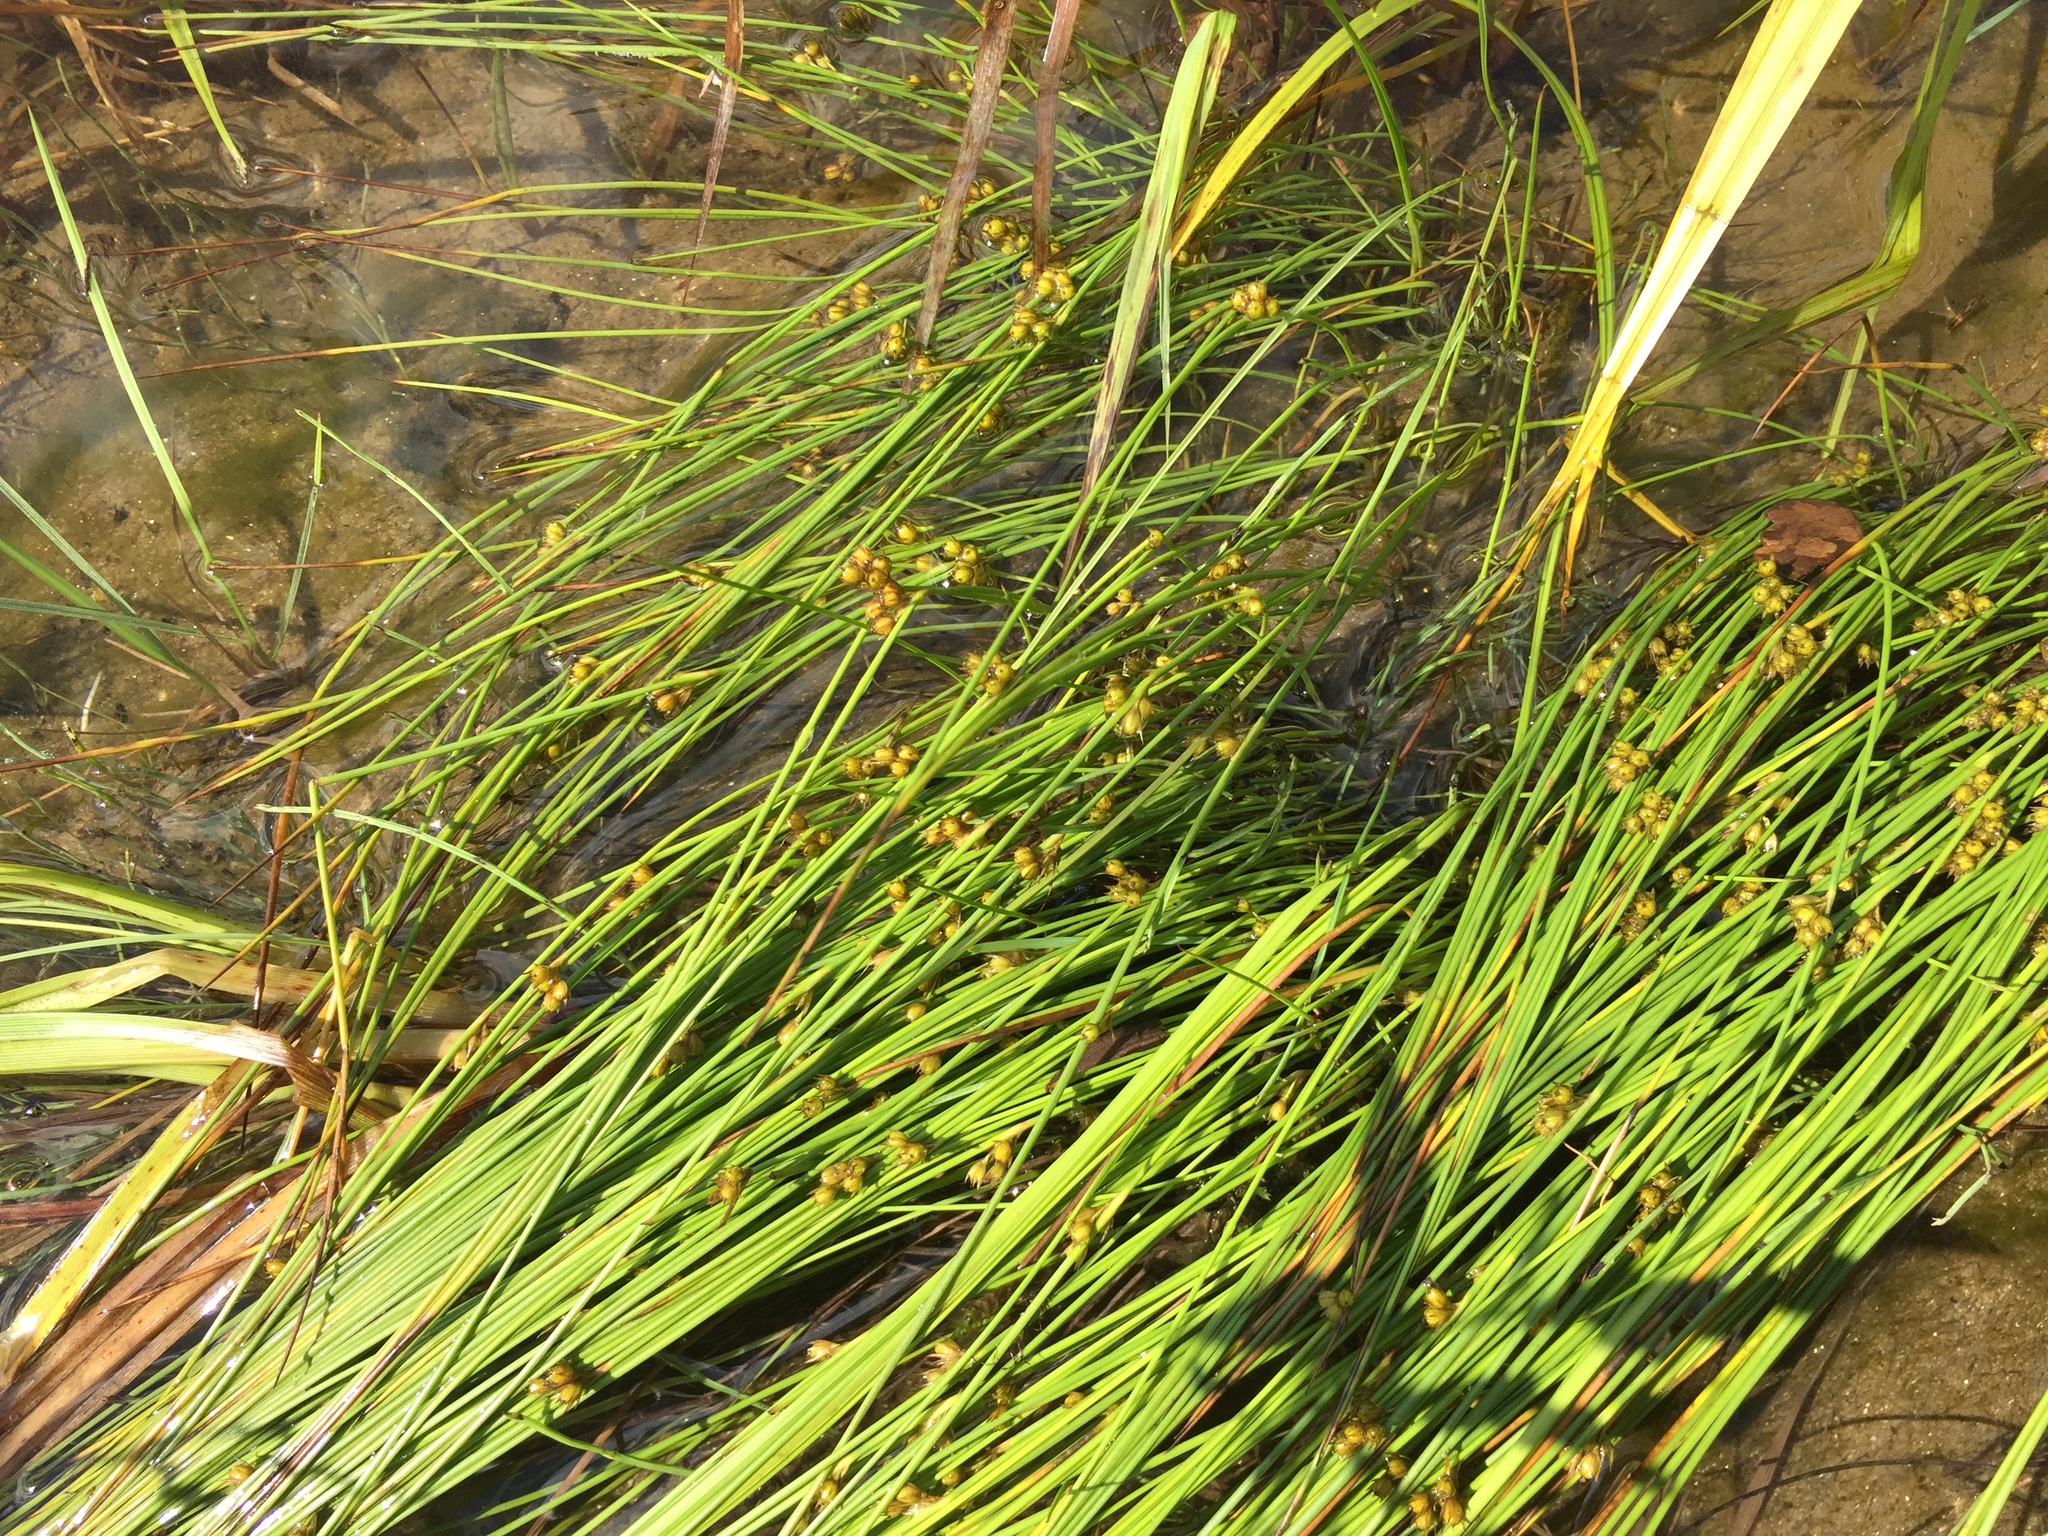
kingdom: Plantae
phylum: Tracheophyta
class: Liliopsida
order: Poales
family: Juncaceae
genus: Juncus
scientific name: Juncus filiformis
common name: Thread rush
